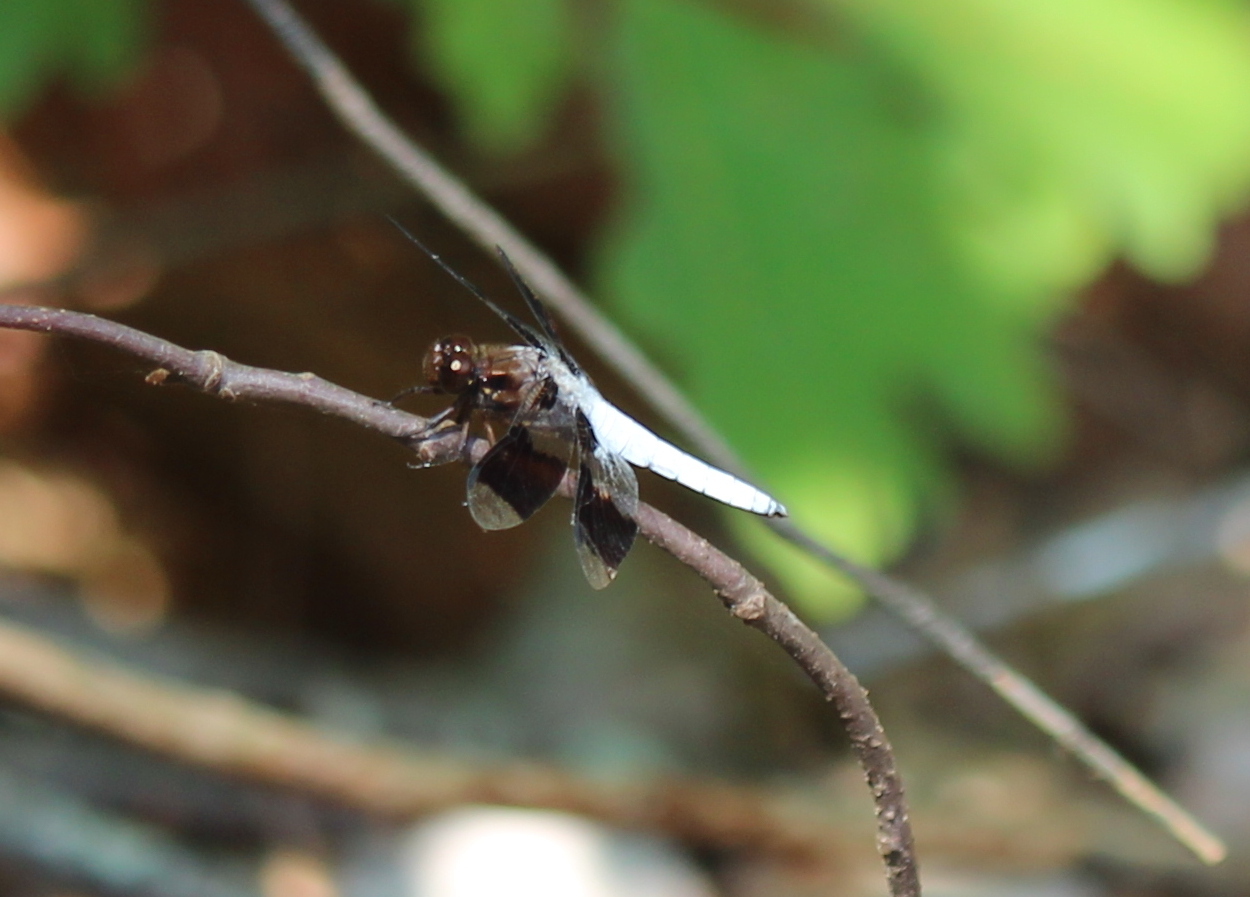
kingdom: Animalia
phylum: Arthropoda
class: Insecta
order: Odonata
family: Libellulidae
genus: Plathemis
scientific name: Plathemis lydia
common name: Common whitetail
